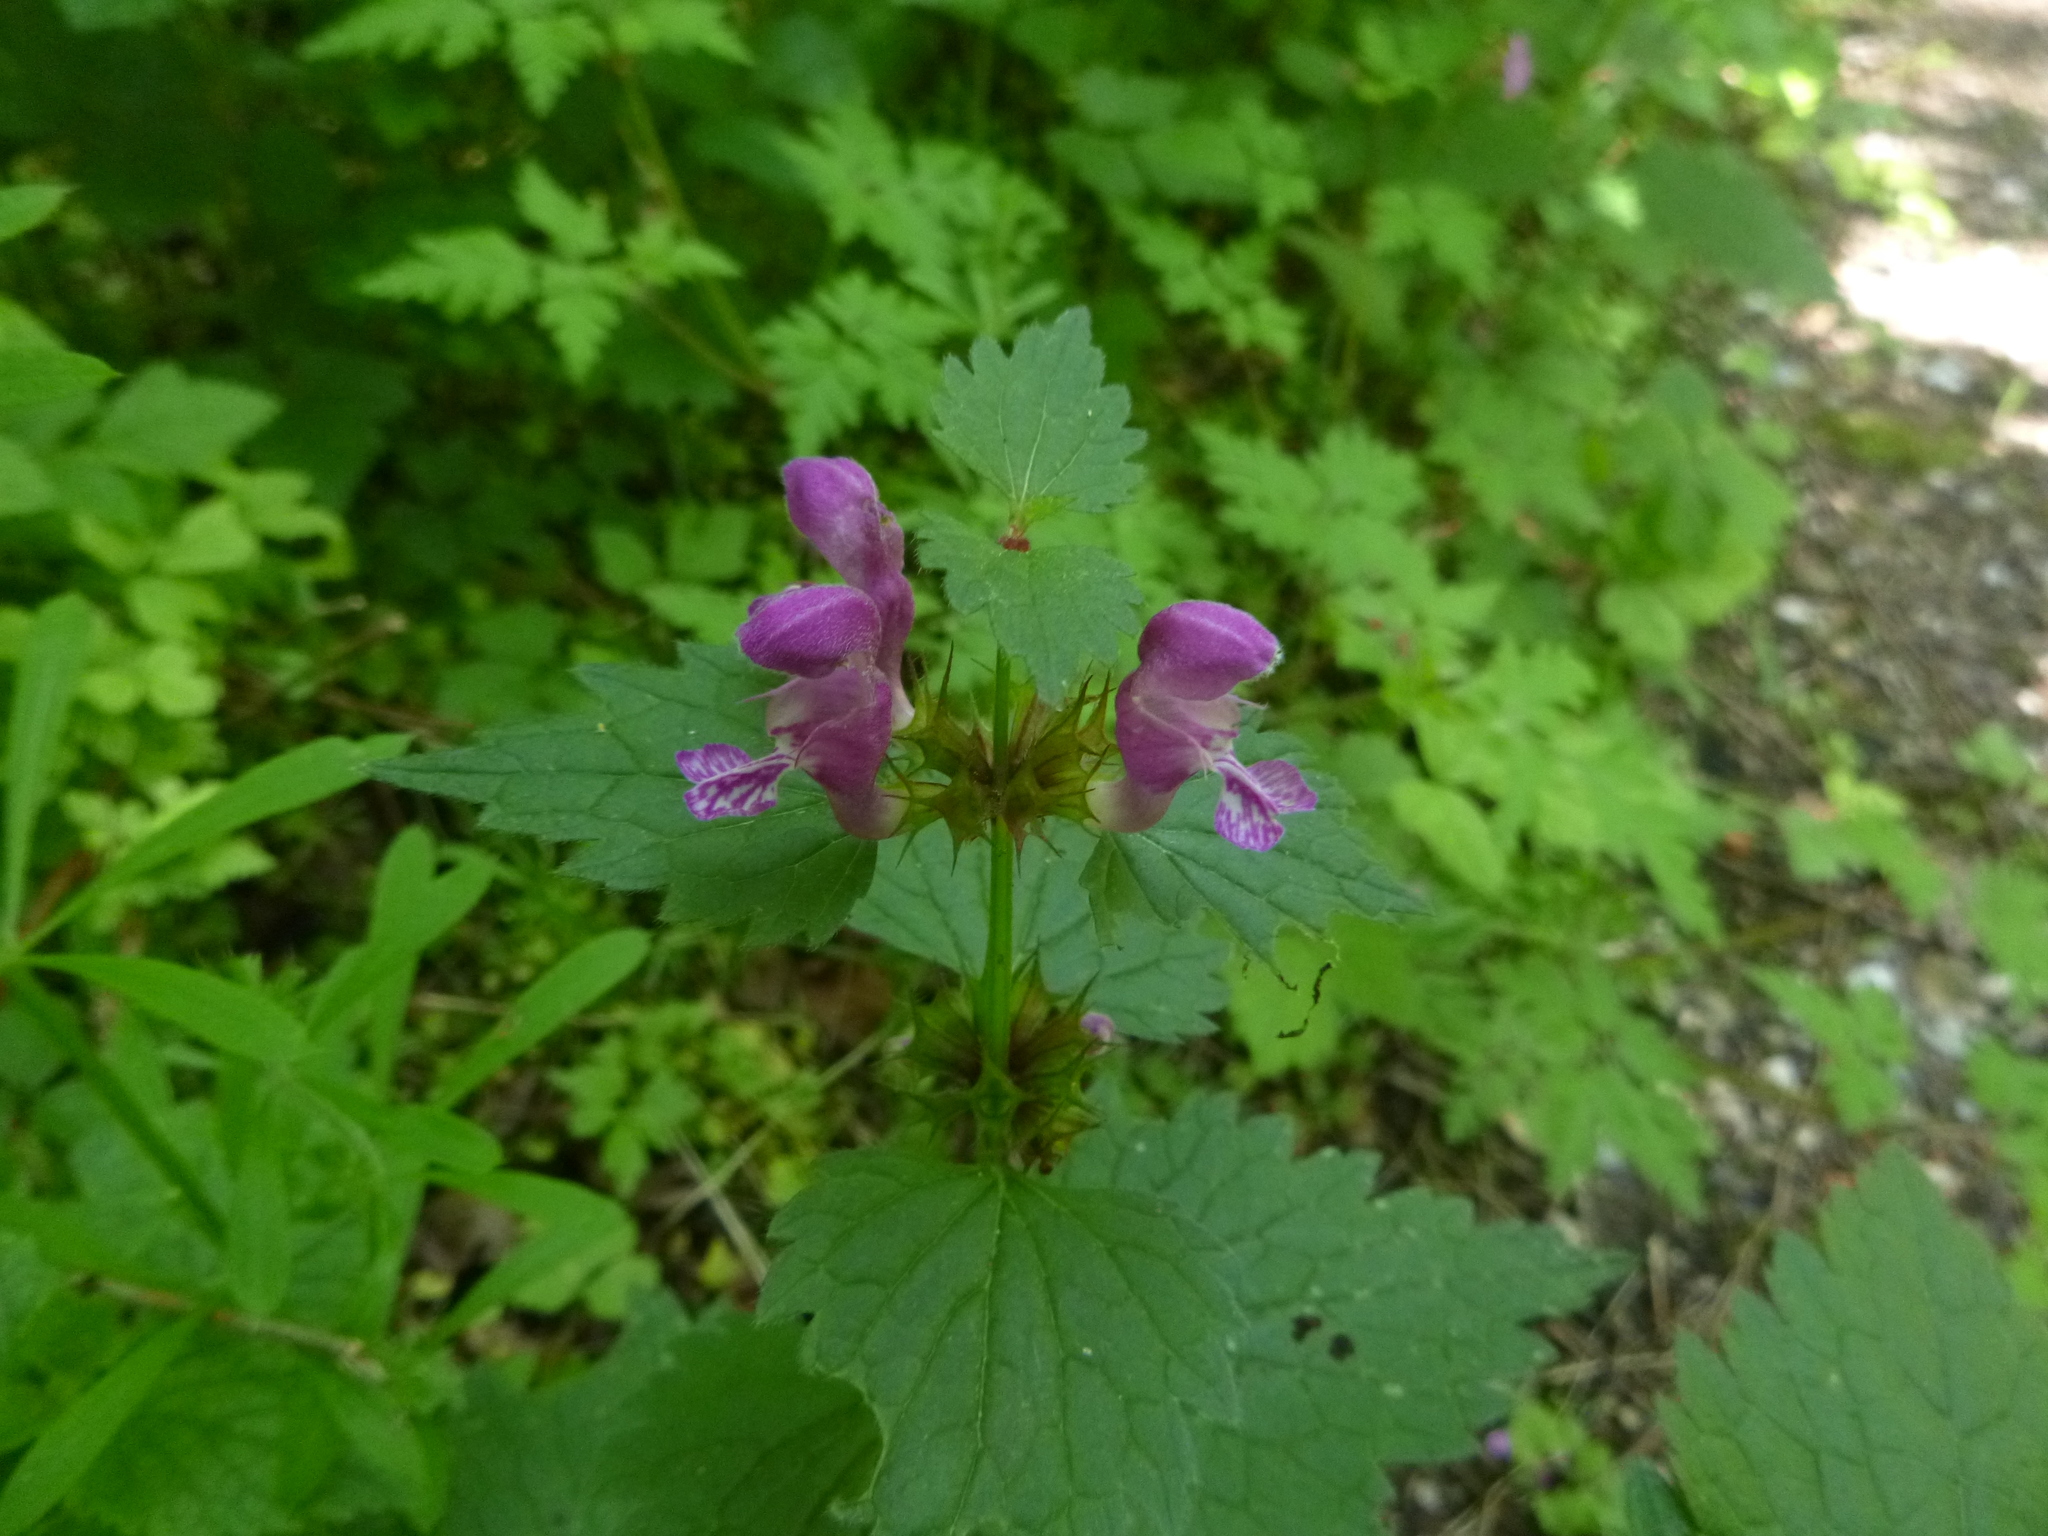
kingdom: Plantae
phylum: Tracheophyta
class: Magnoliopsida
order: Lamiales
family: Lamiaceae
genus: Lamium
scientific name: Lamium maculatum
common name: Spotted dead-nettle
